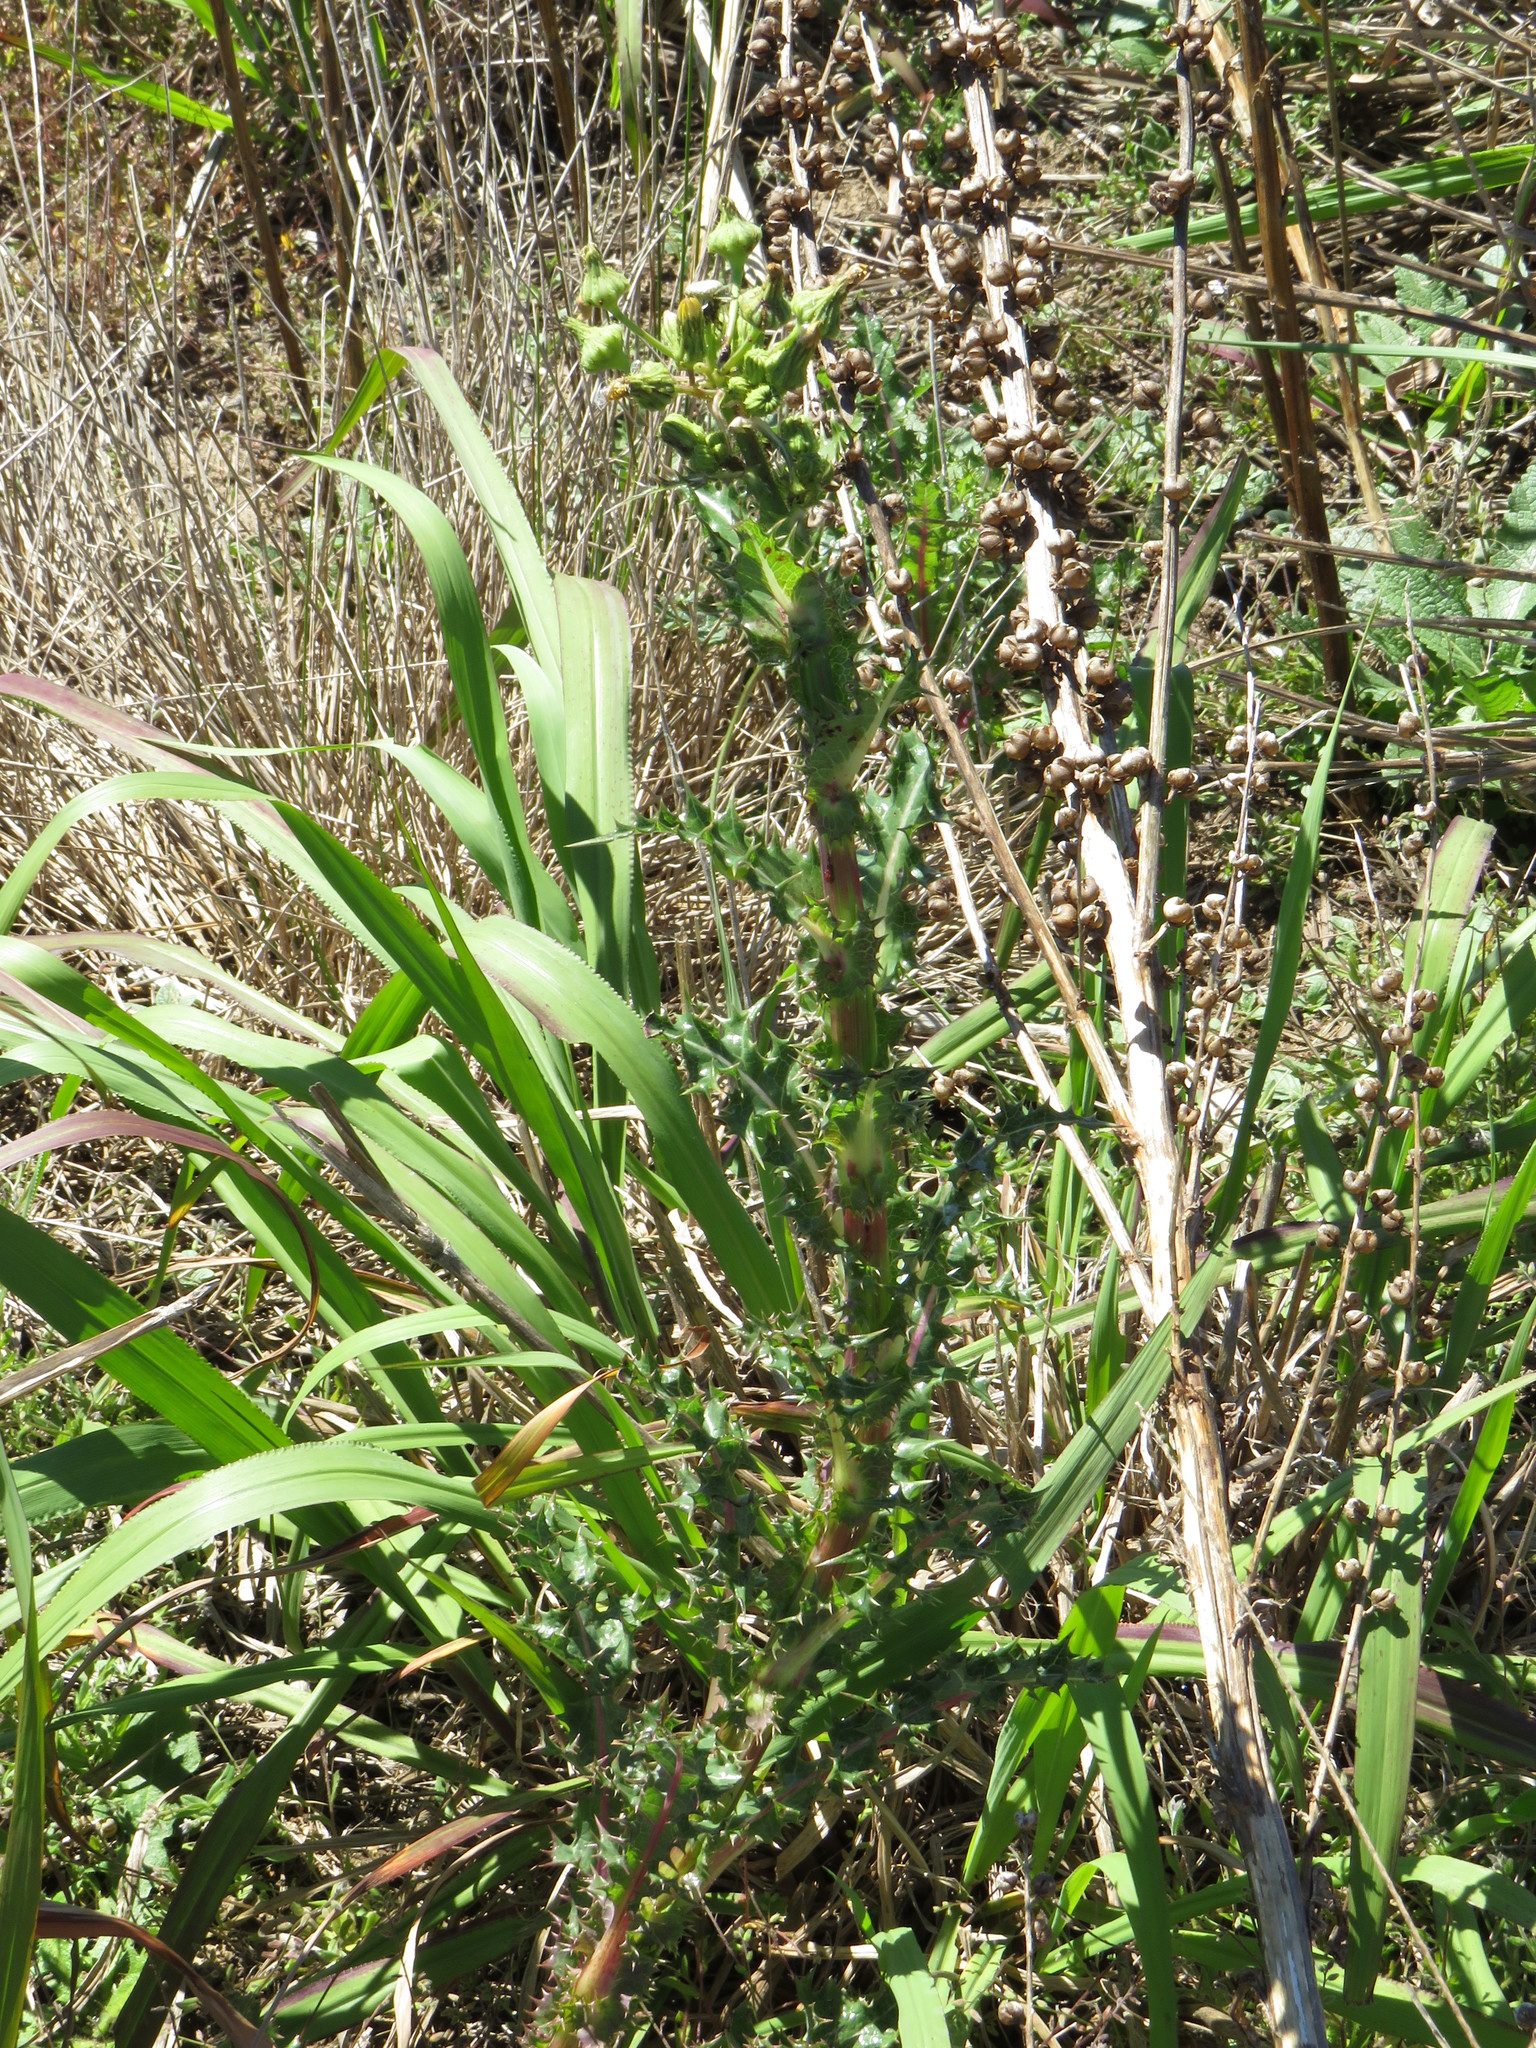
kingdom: Plantae
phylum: Tracheophyta
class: Magnoliopsida
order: Asterales
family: Asteraceae
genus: Sonchus
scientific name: Sonchus asper
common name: Prickly sow-thistle
